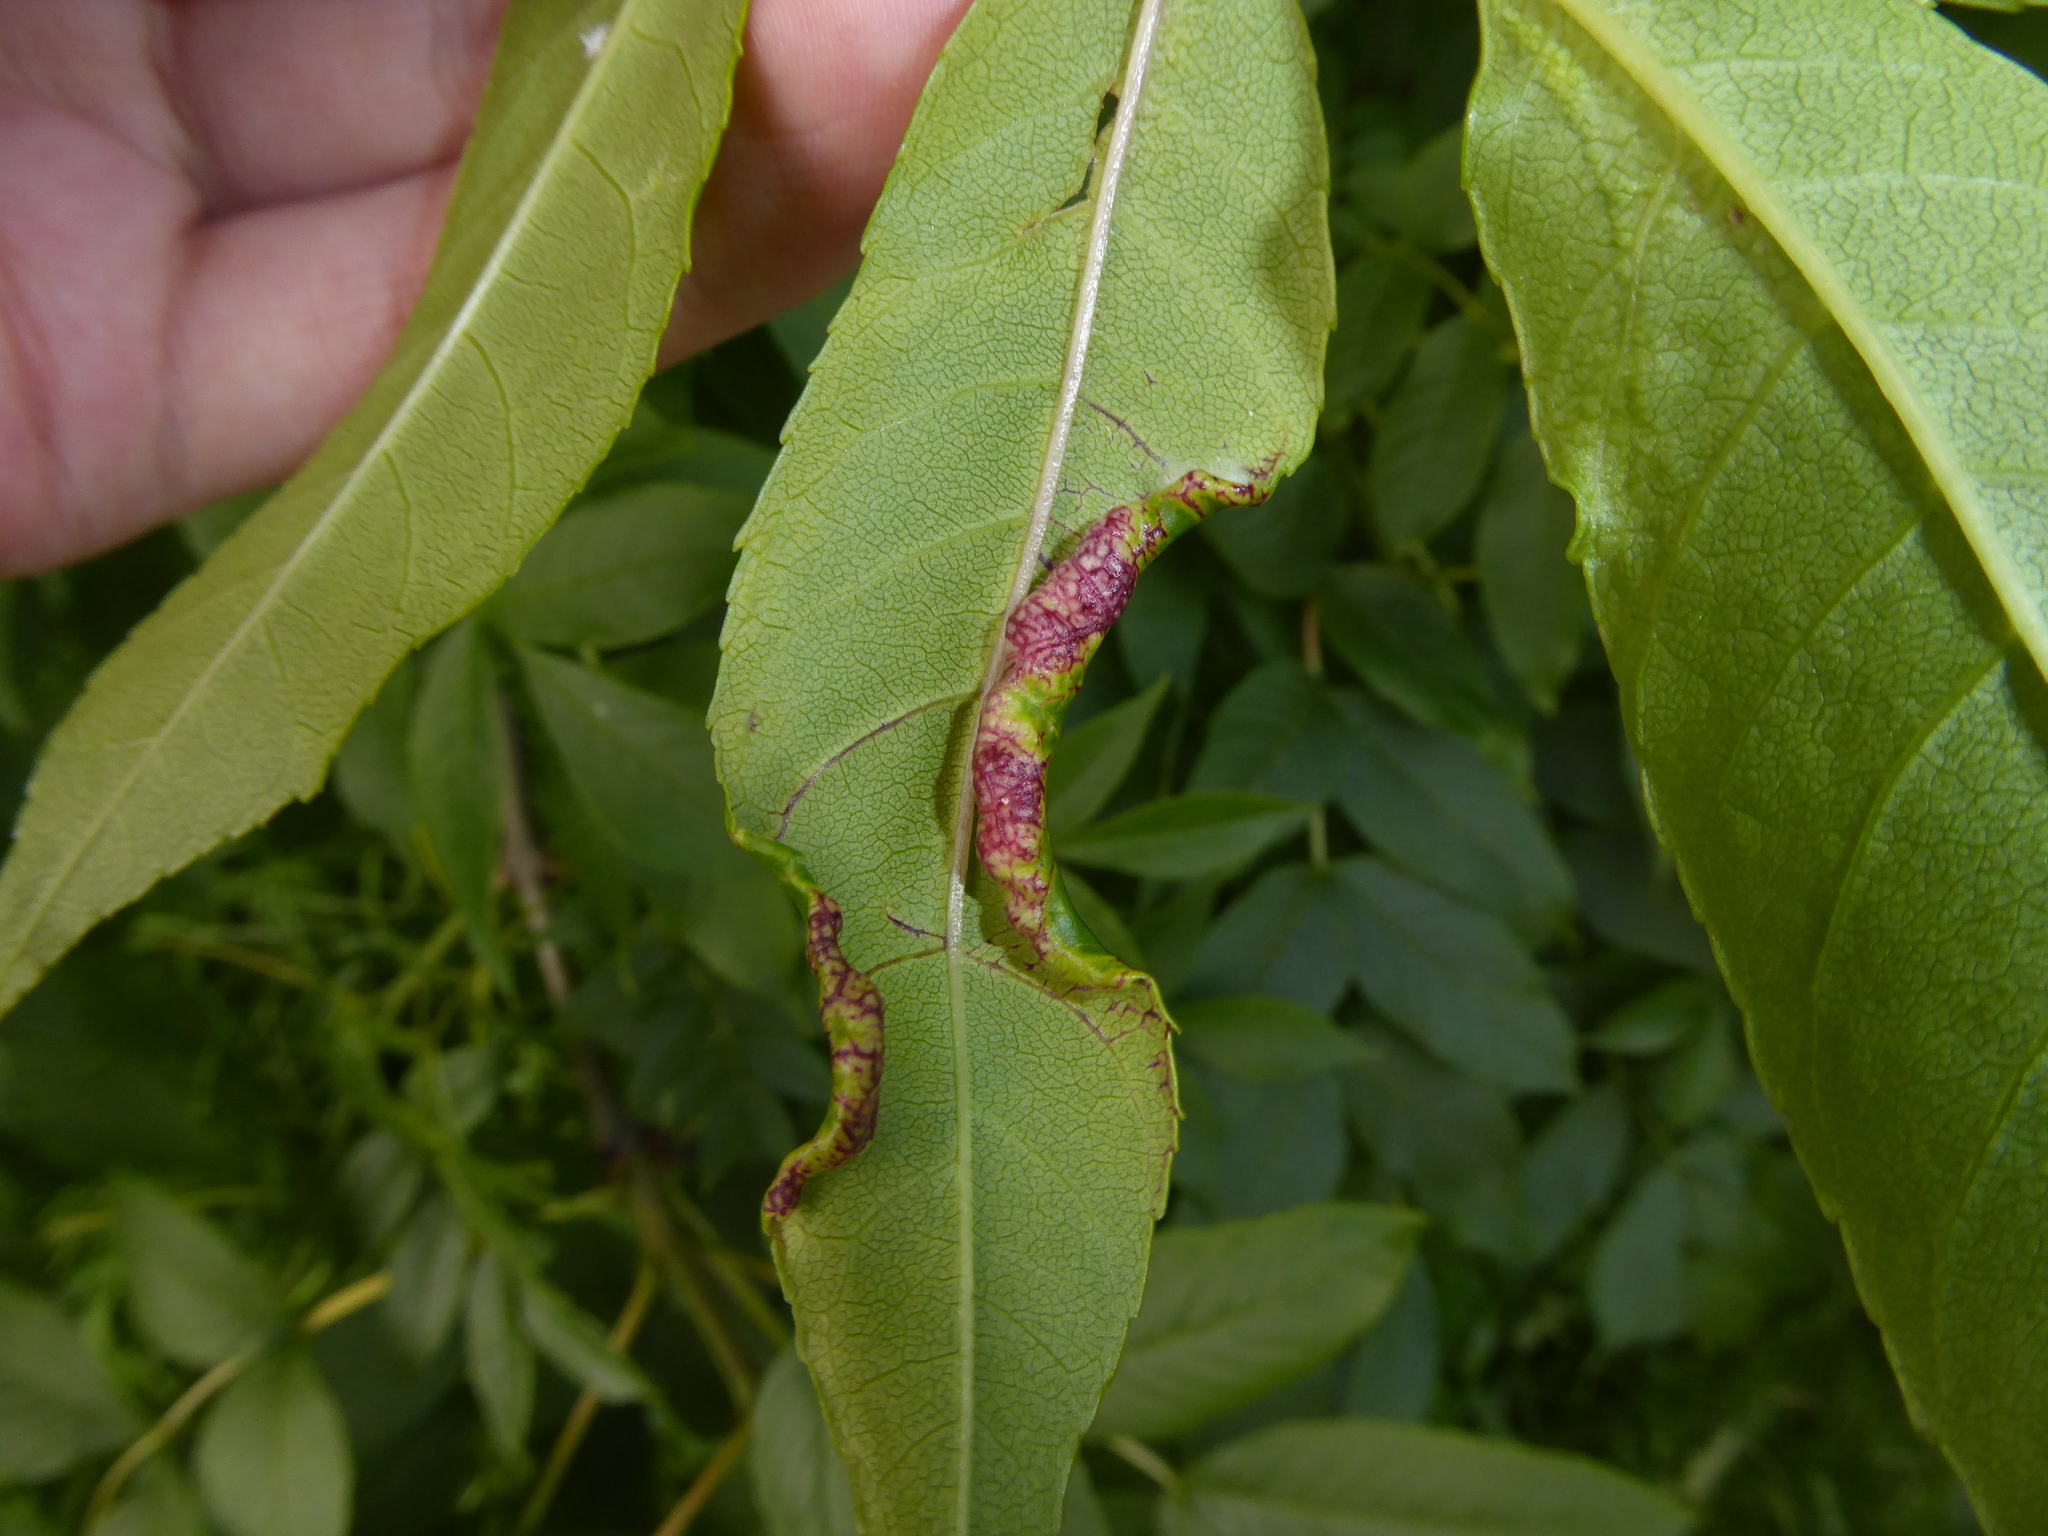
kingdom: Animalia
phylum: Arthropoda
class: Insecta
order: Hemiptera
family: Liviidae
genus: Psyllopsis
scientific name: Psyllopsis fraxini
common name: Jumping plant louse
